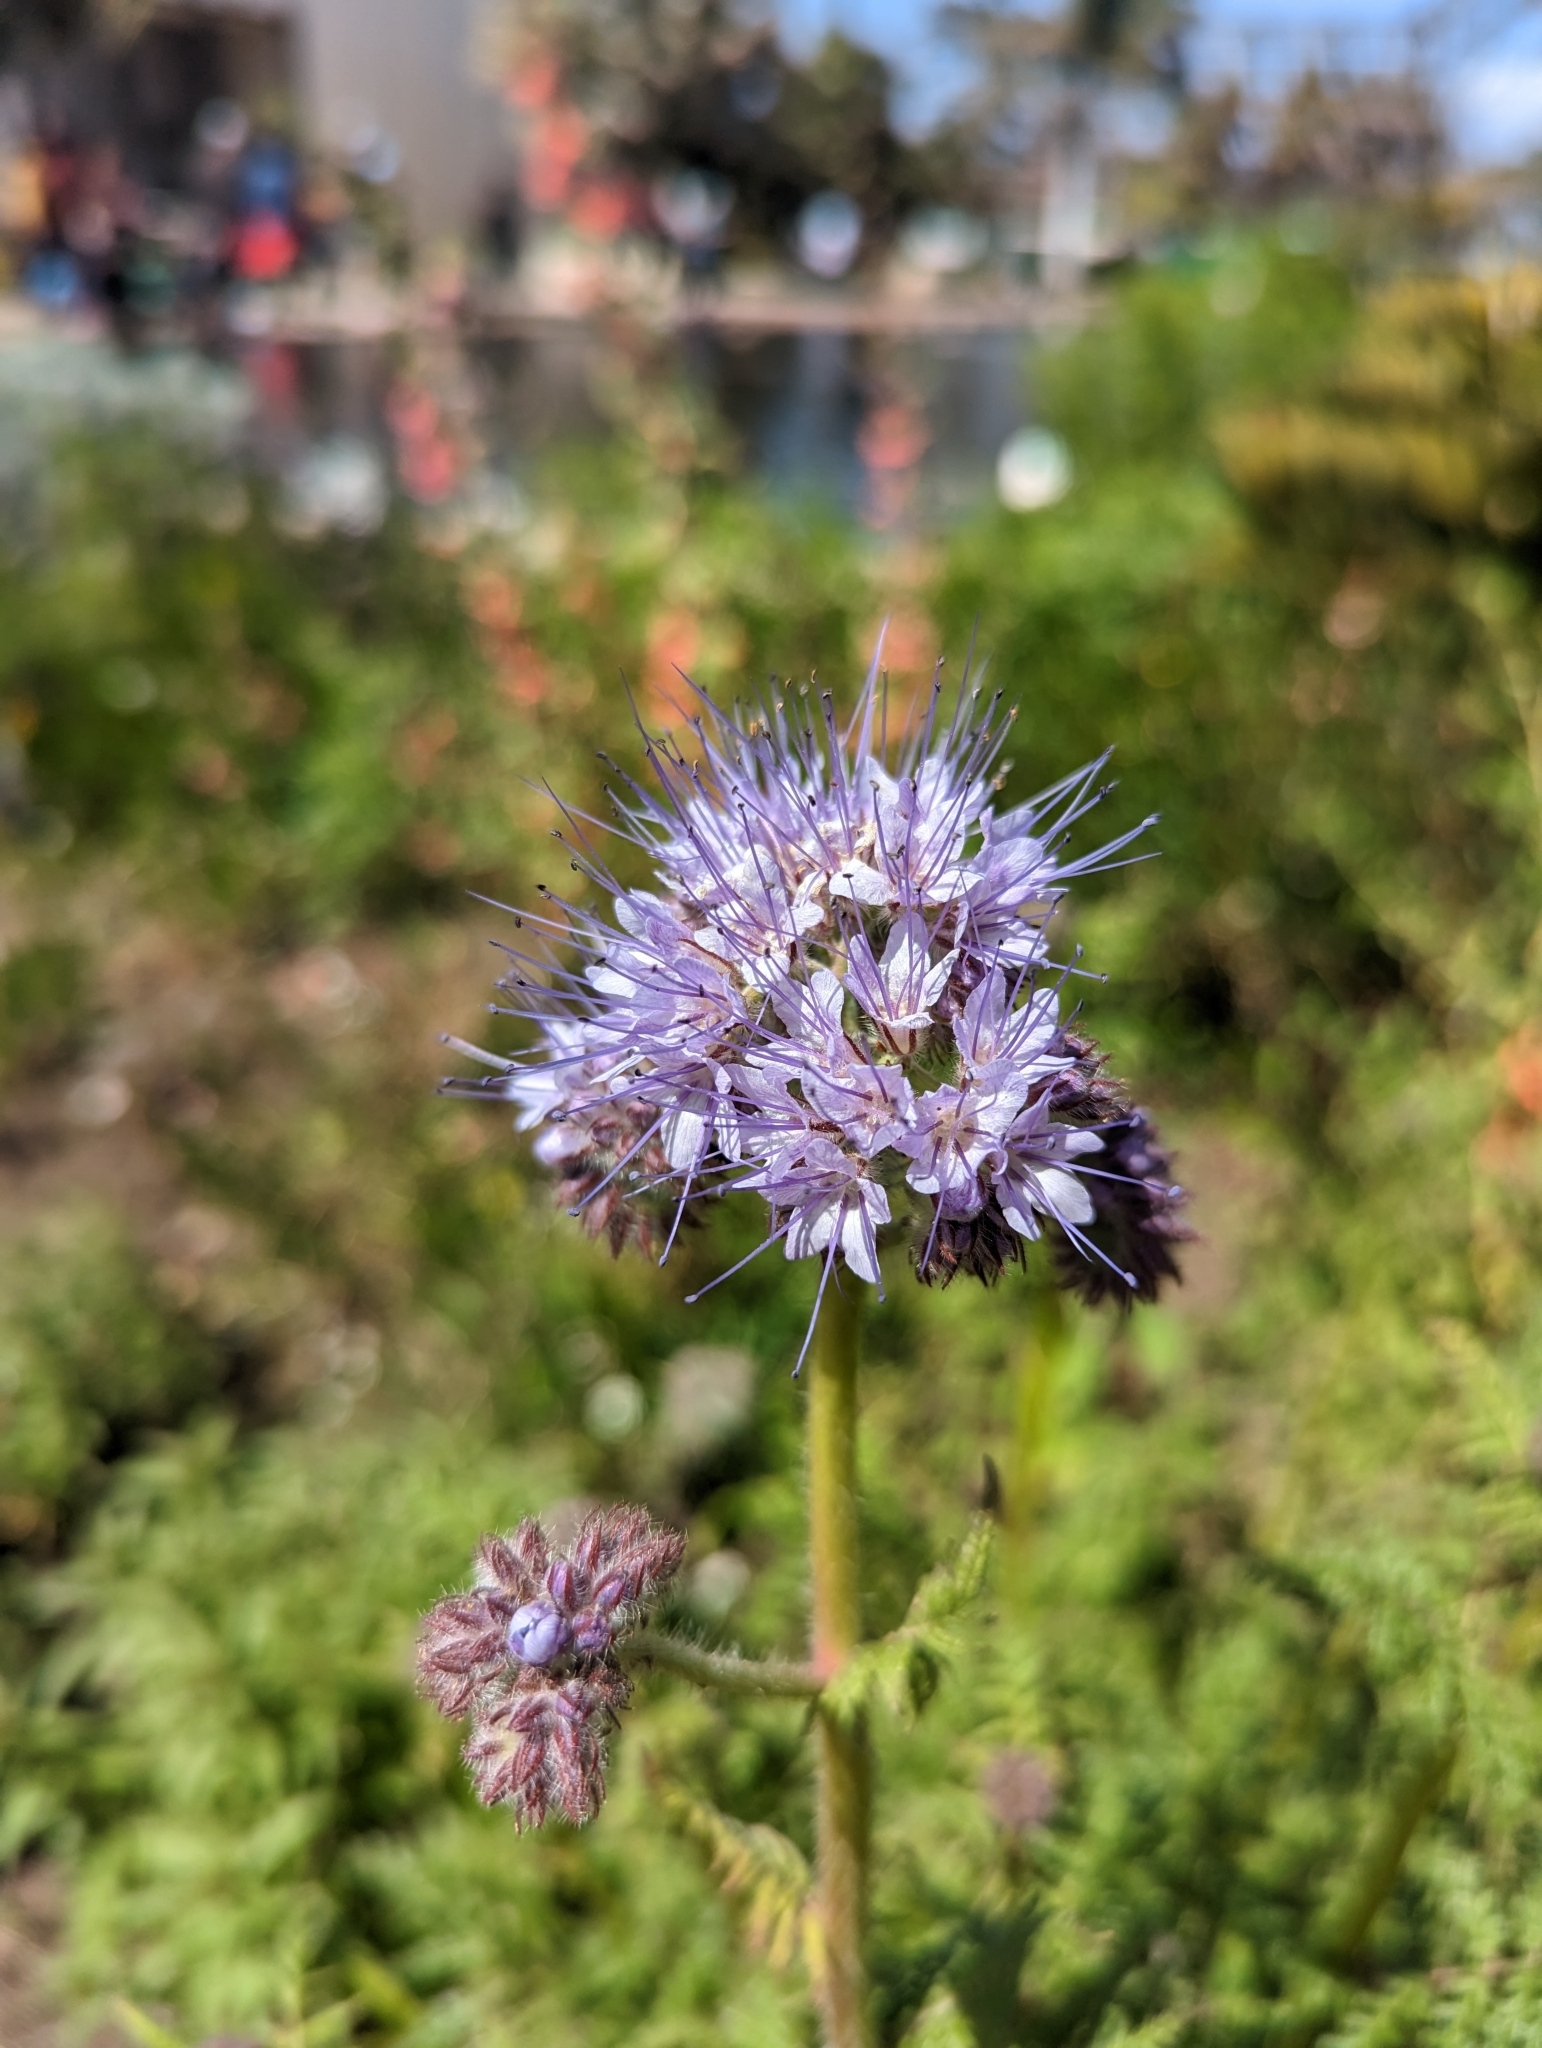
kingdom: Plantae
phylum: Tracheophyta
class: Magnoliopsida
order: Boraginales
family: Hydrophyllaceae
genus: Phacelia
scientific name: Phacelia tanacetifolia
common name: Phacelia
